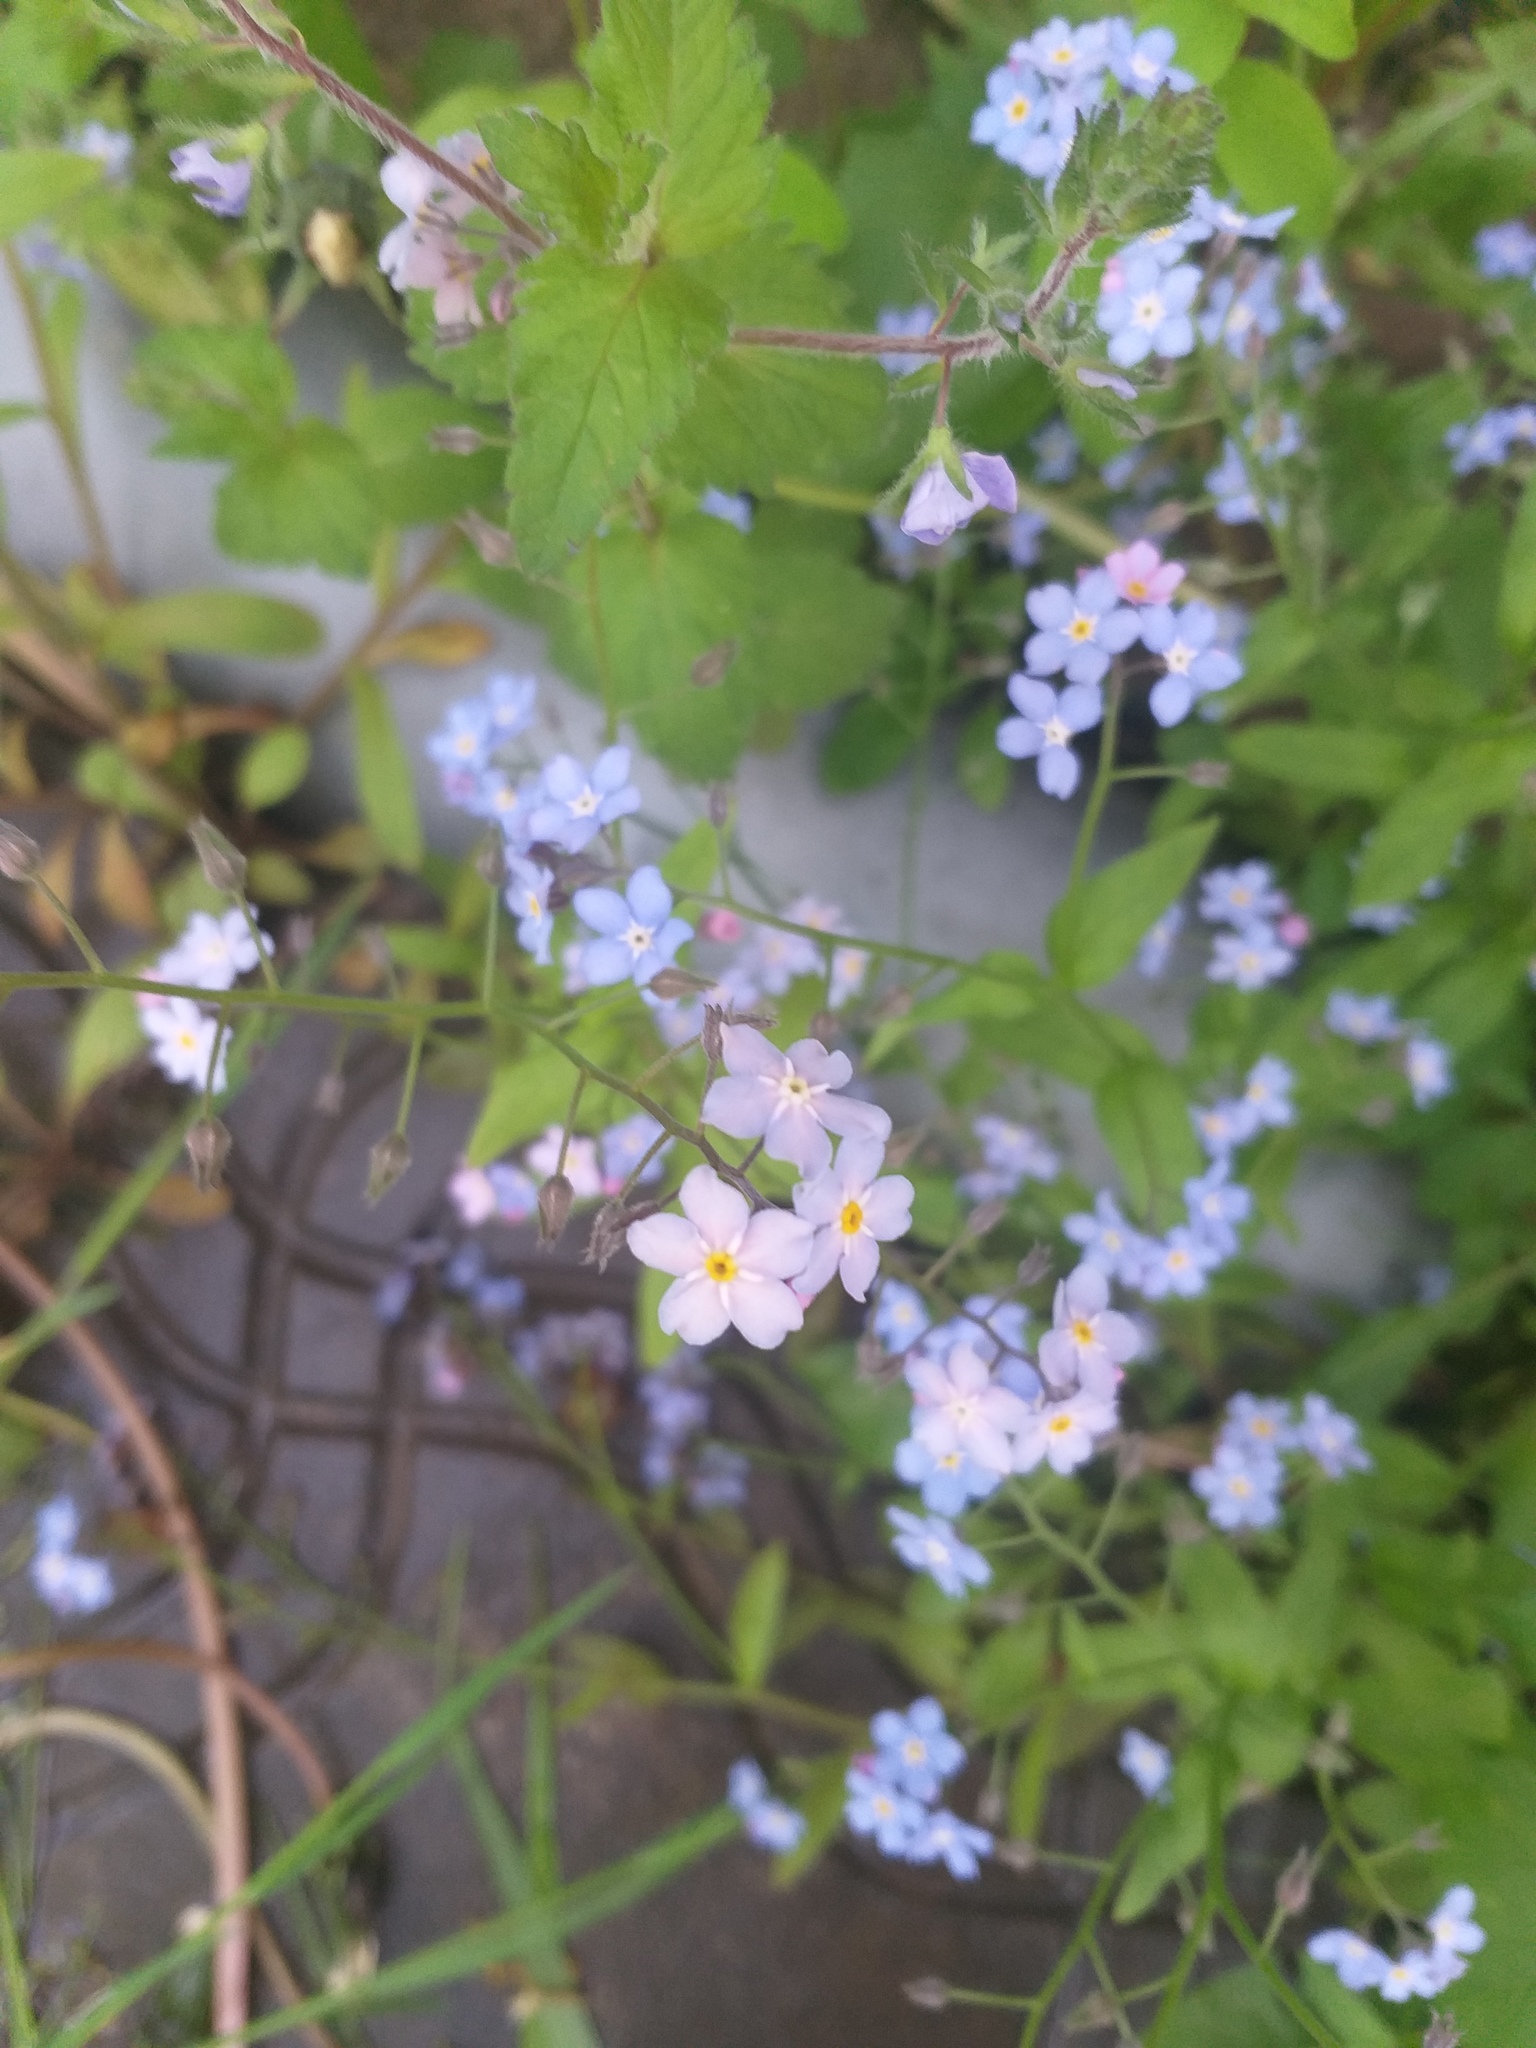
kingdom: Plantae
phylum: Tracheophyta
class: Magnoliopsida
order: Boraginales
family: Boraginaceae
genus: Myosotis
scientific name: Myosotis sylvatica
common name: Wood forget-me-not
